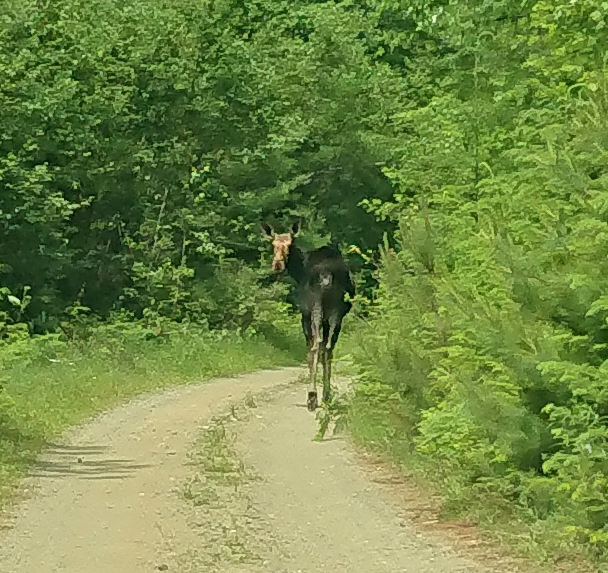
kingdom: Animalia
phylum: Chordata
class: Mammalia
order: Artiodactyla
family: Cervidae
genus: Alces
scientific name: Alces alces
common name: Moose
